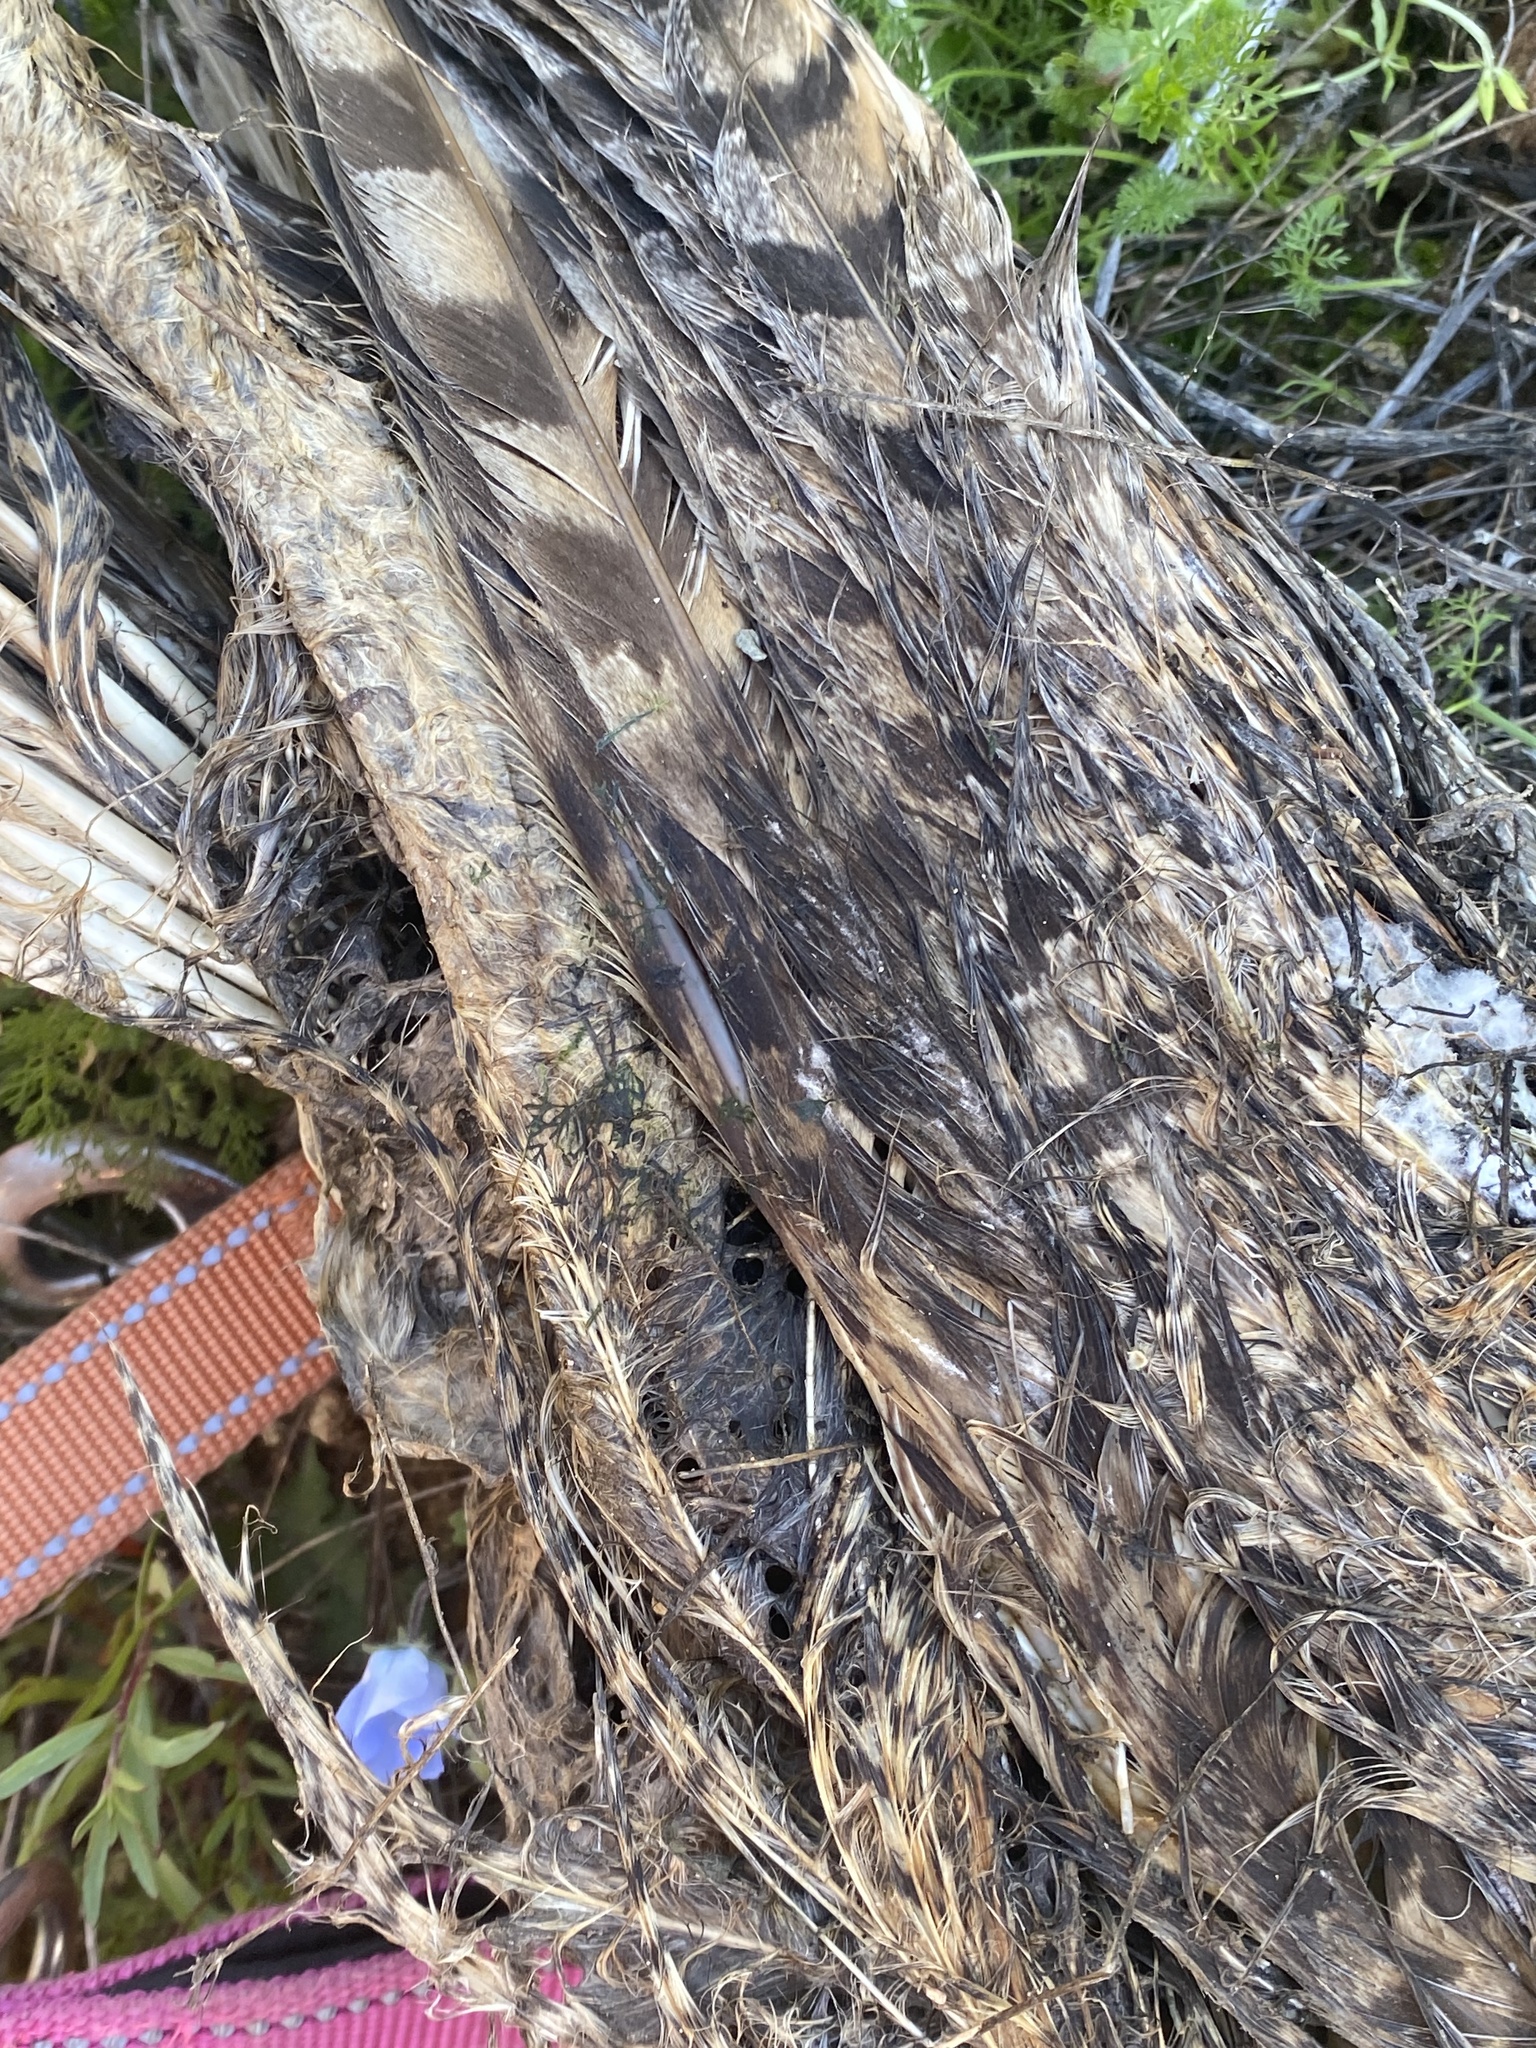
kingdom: Animalia
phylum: Chordata
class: Aves
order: Strigiformes
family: Strigidae
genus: Bubo
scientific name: Bubo virginianus
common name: Great horned owl
